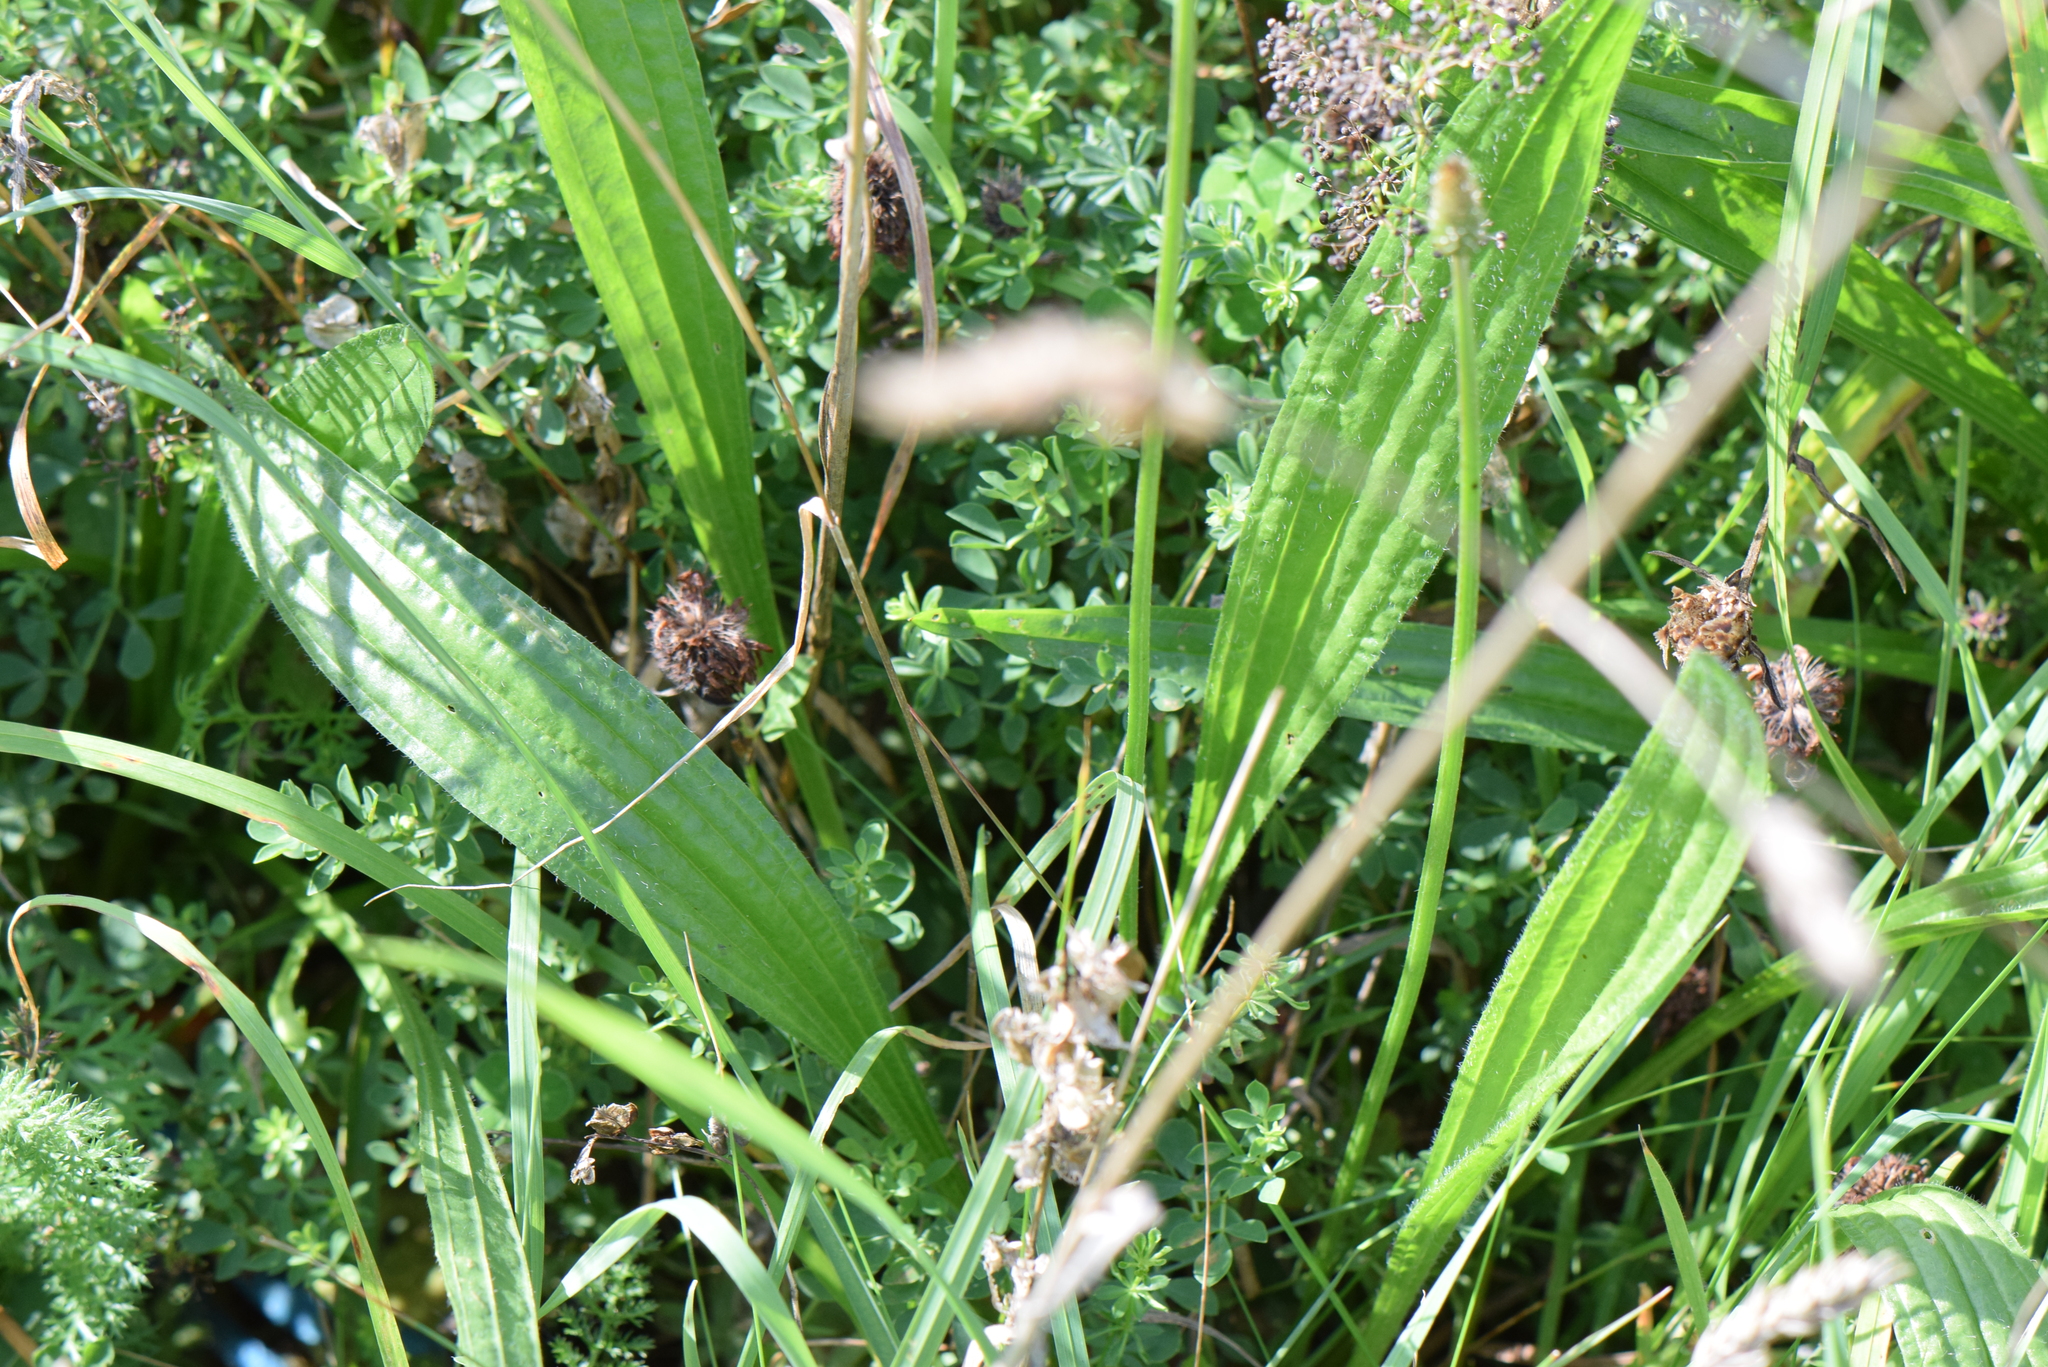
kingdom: Plantae
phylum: Tracheophyta
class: Magnoliopsida
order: Lamiales
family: Plantaginaceae
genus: Plantago
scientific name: Plantago lanceolata
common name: Ribwort plantain
